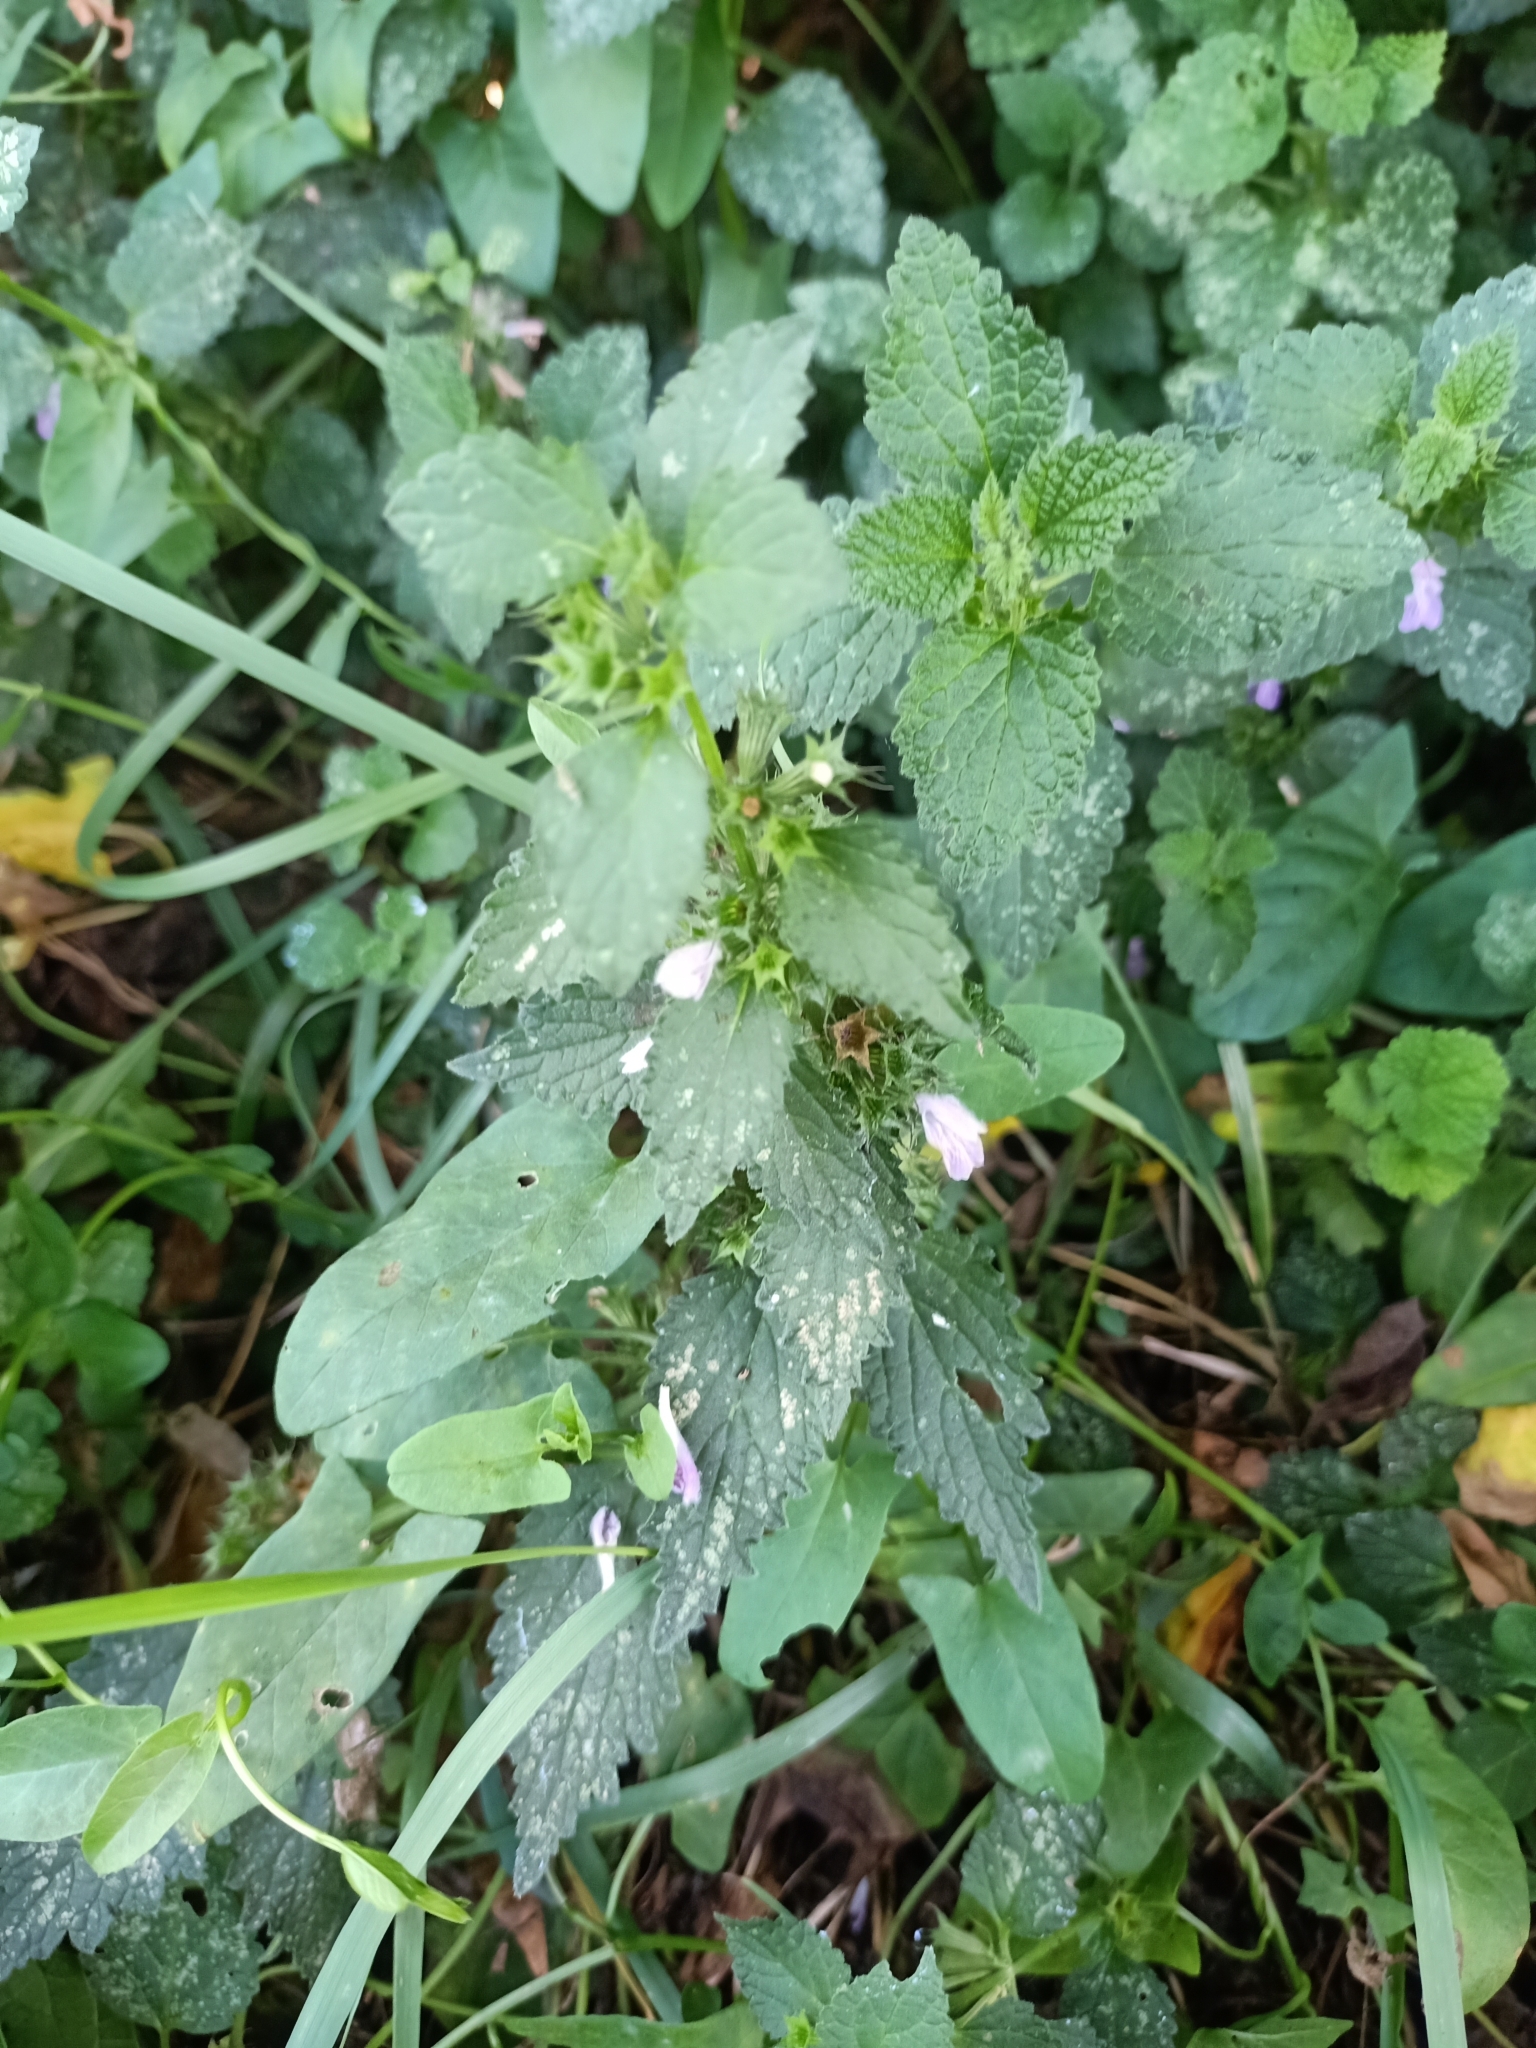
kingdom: Plantae
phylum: Tracheophyta
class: Magnoliopsida
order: Lamiales
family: Lamiaceae
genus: Ballota
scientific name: Ballota nigra
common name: Black horehound
